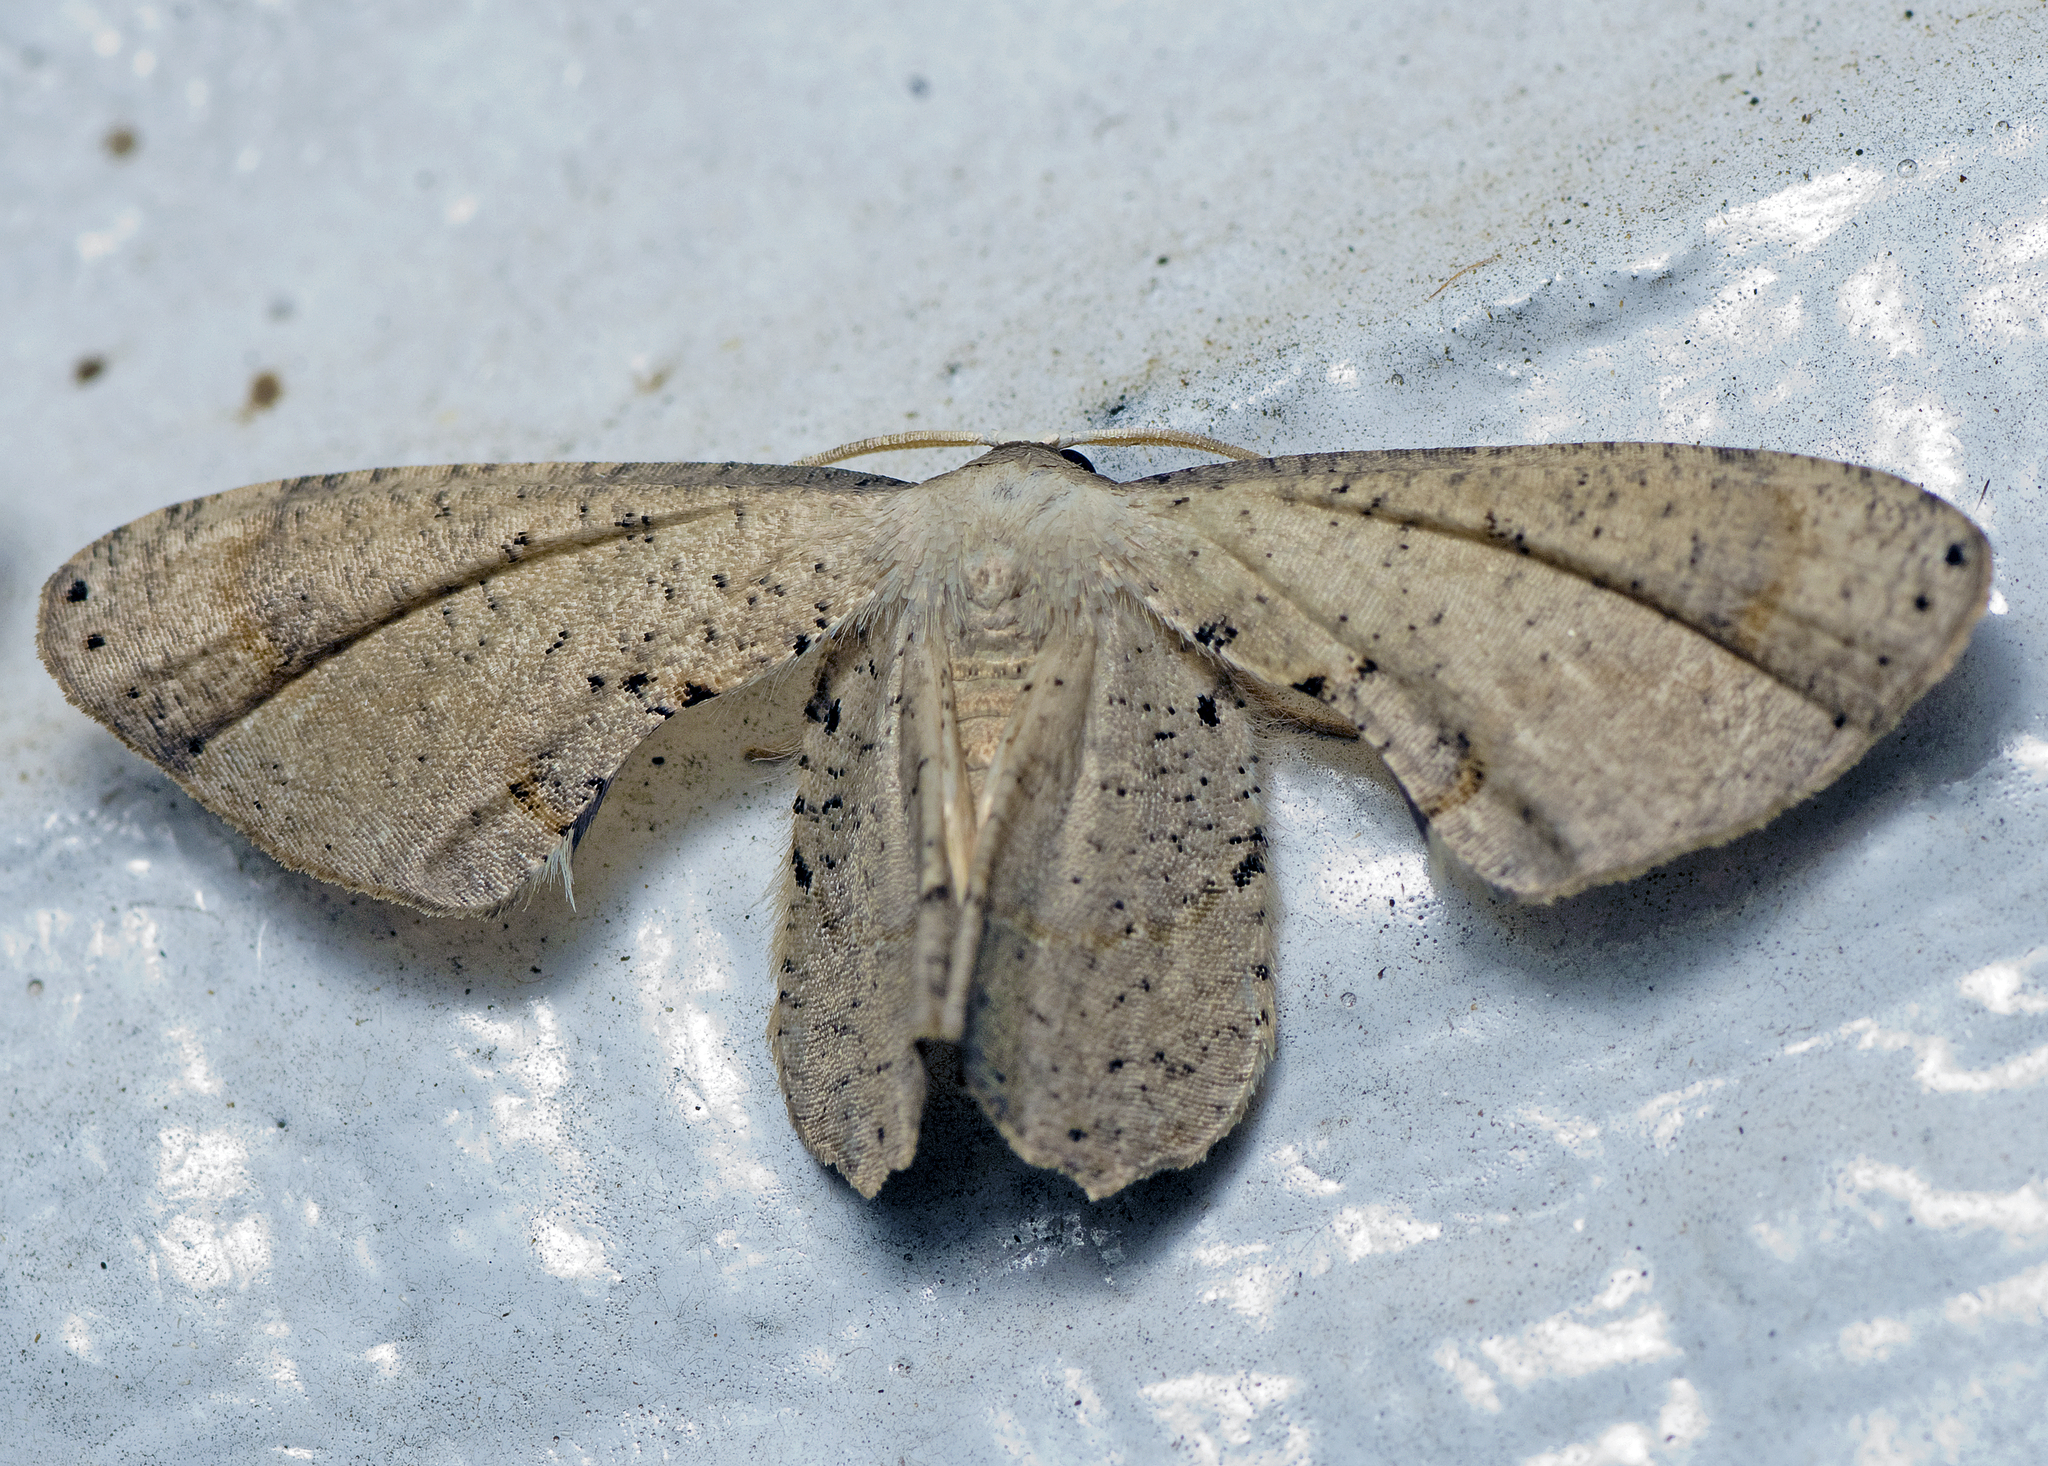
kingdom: Animalia
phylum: Arthropoda
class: Insecta
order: Lepidoptera
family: Uraniidae
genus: Phazaca
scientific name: Phazaca leucocephala
